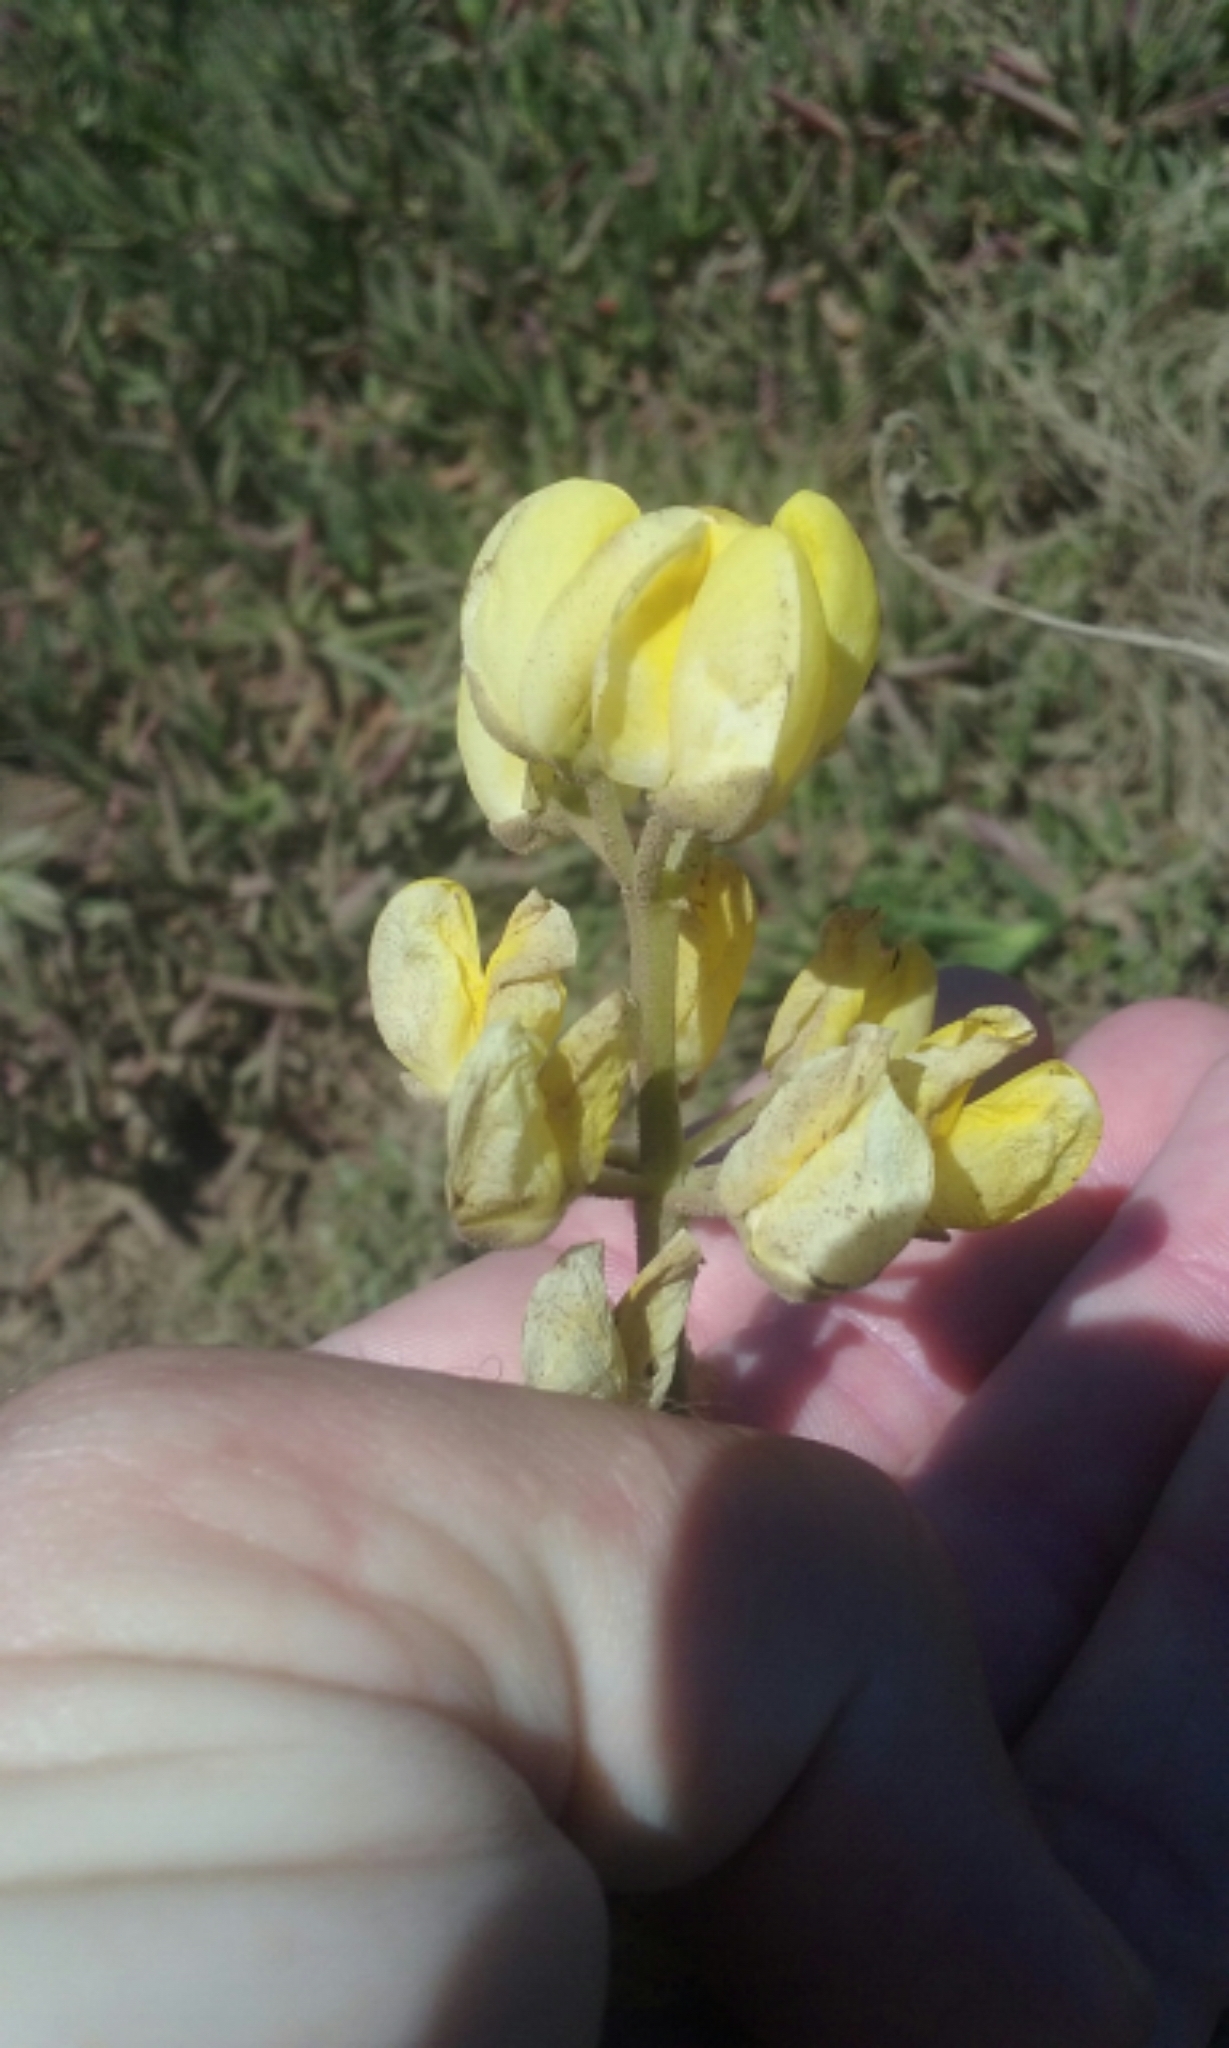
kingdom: Plantae
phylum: Tracheophyta
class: Magnoliopsida
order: Fabales
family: Fabaceae
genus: Lupinus
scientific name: Lupinus arboreus
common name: Yellow bush lupine
